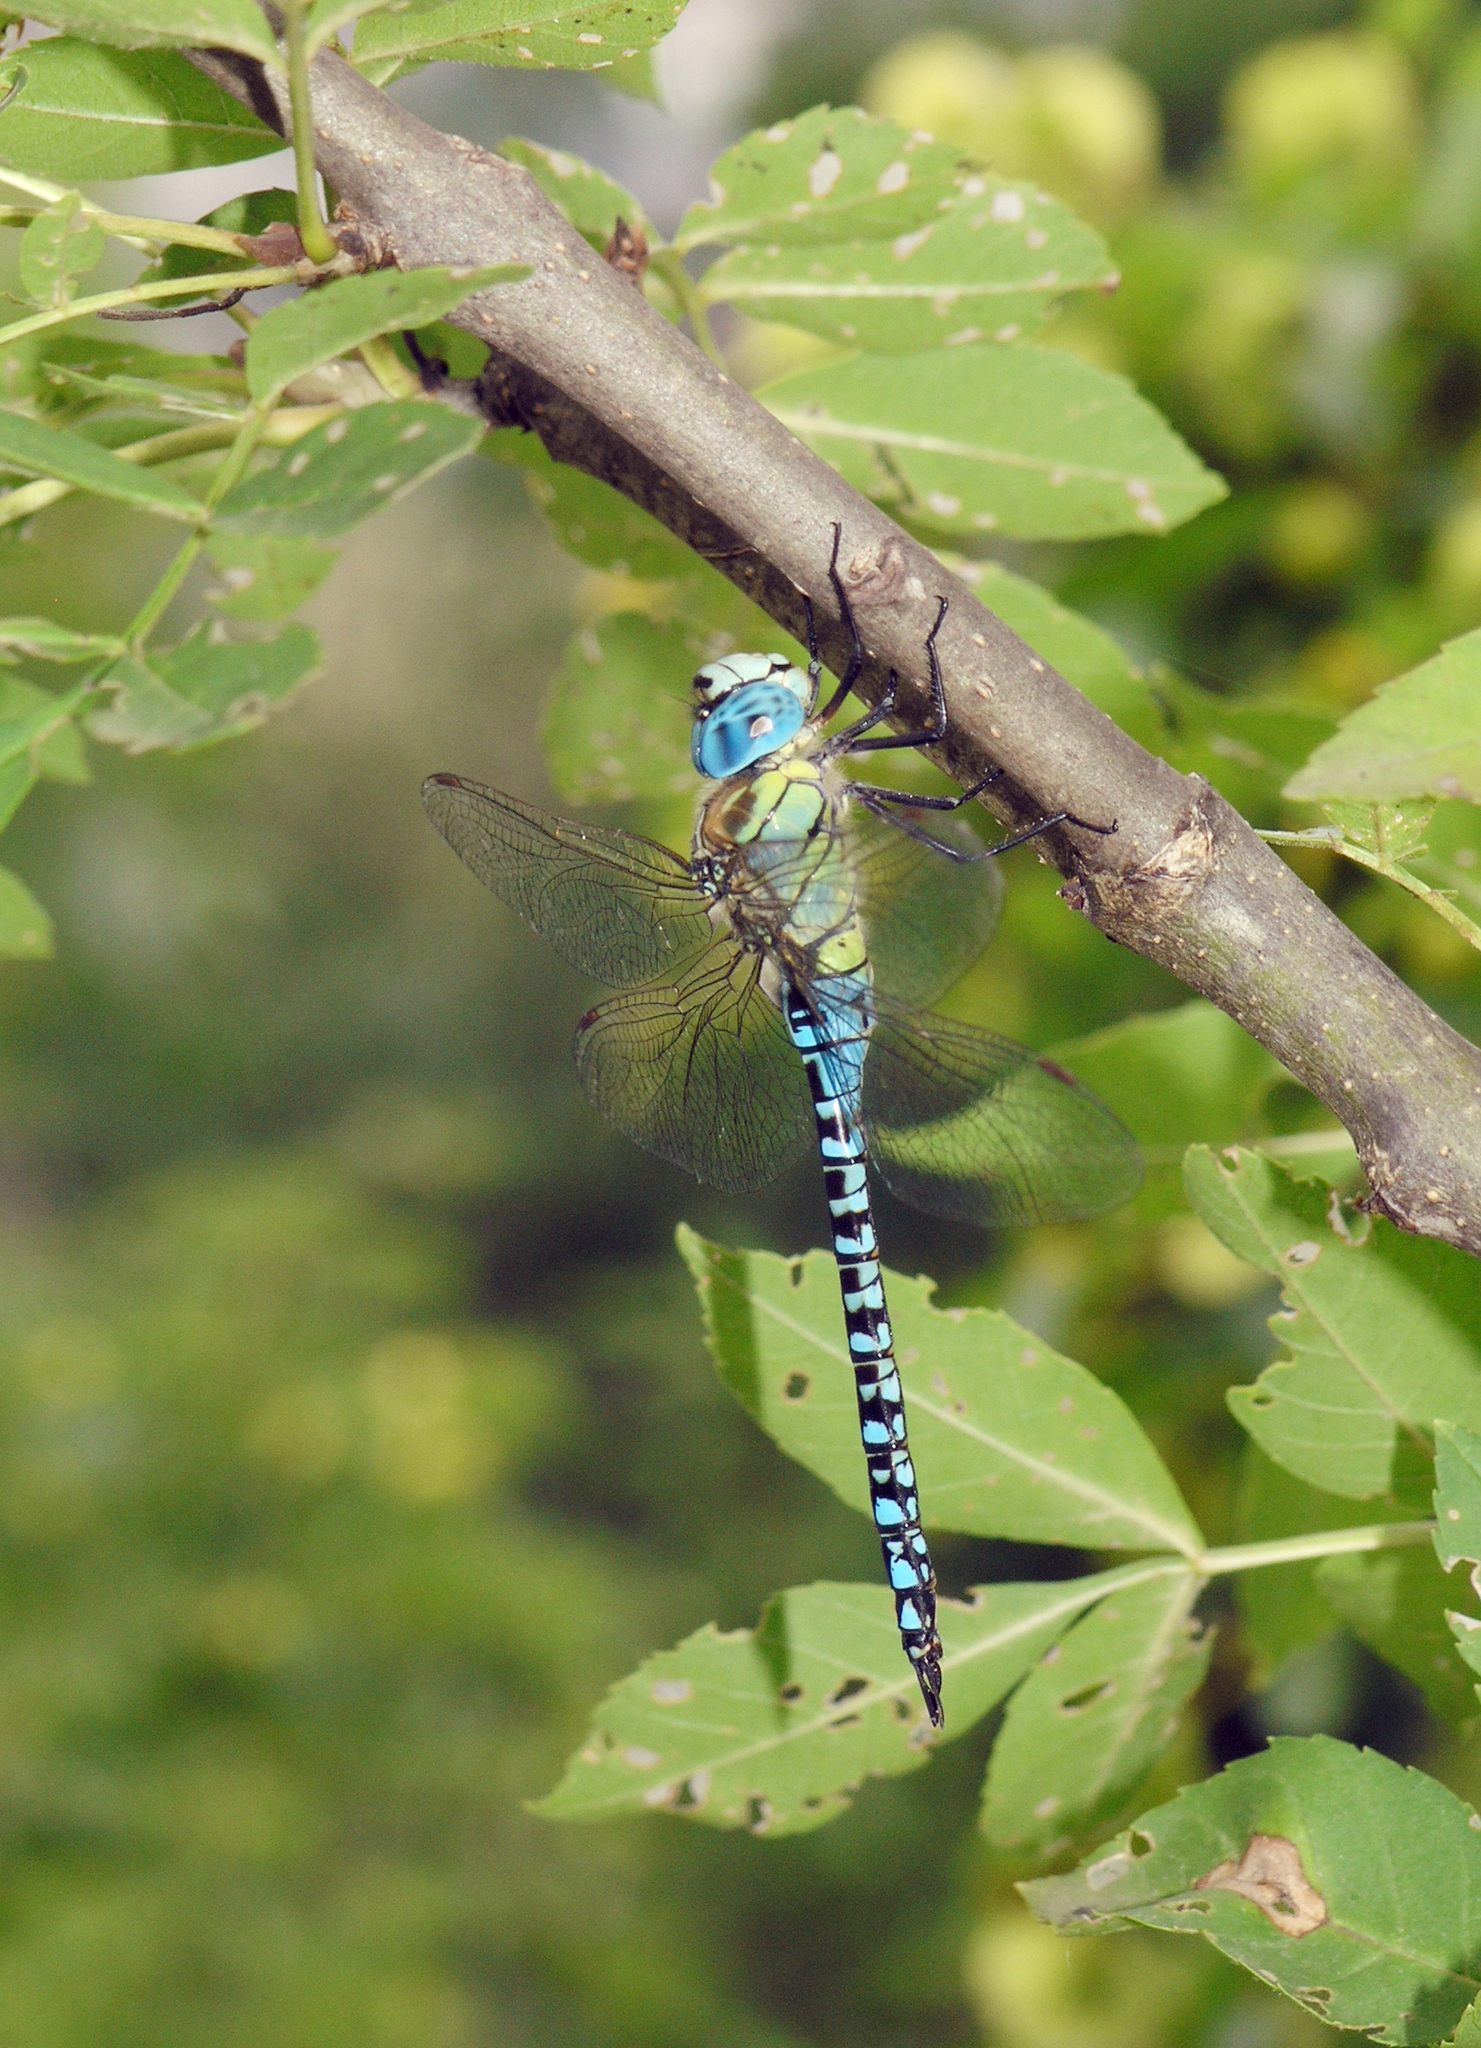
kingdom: Animalia
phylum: Arthropoda
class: Insecta
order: Odonata
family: Aeshnidae
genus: Aeshna
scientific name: Aeshna affinis
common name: Southern migrant hawker
